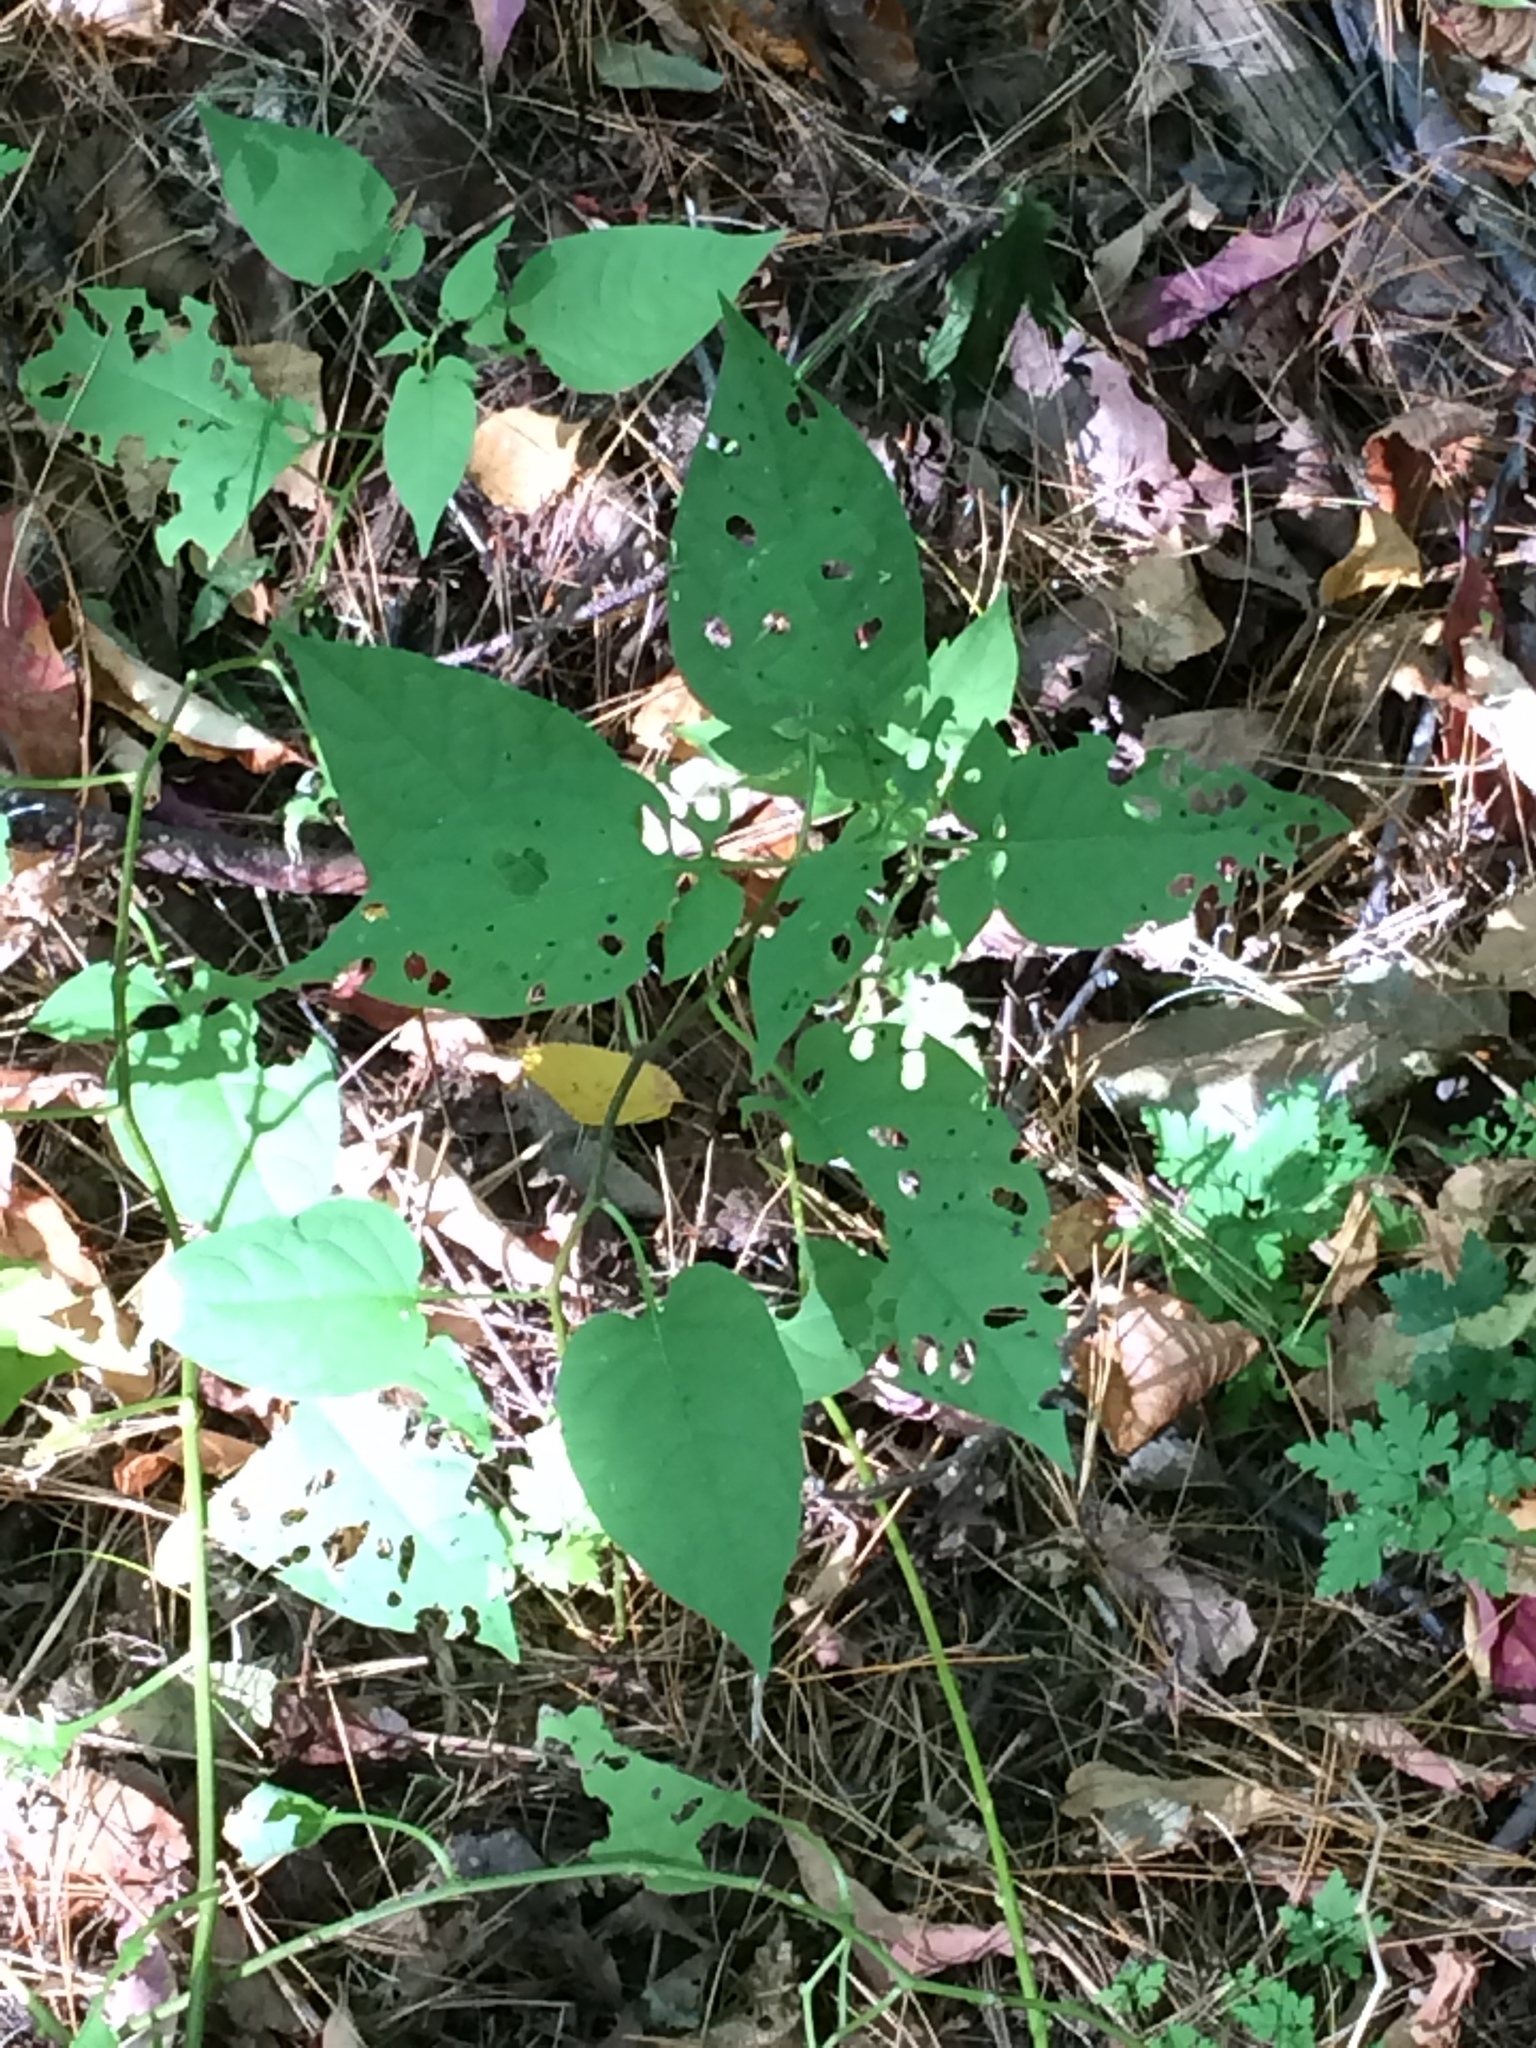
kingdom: Plantae
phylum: Tracheophyta
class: Magnoliopsida
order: Solanales
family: Solanaceae
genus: Solanum
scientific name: Solanum dulcamara
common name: Climbing nightshade
